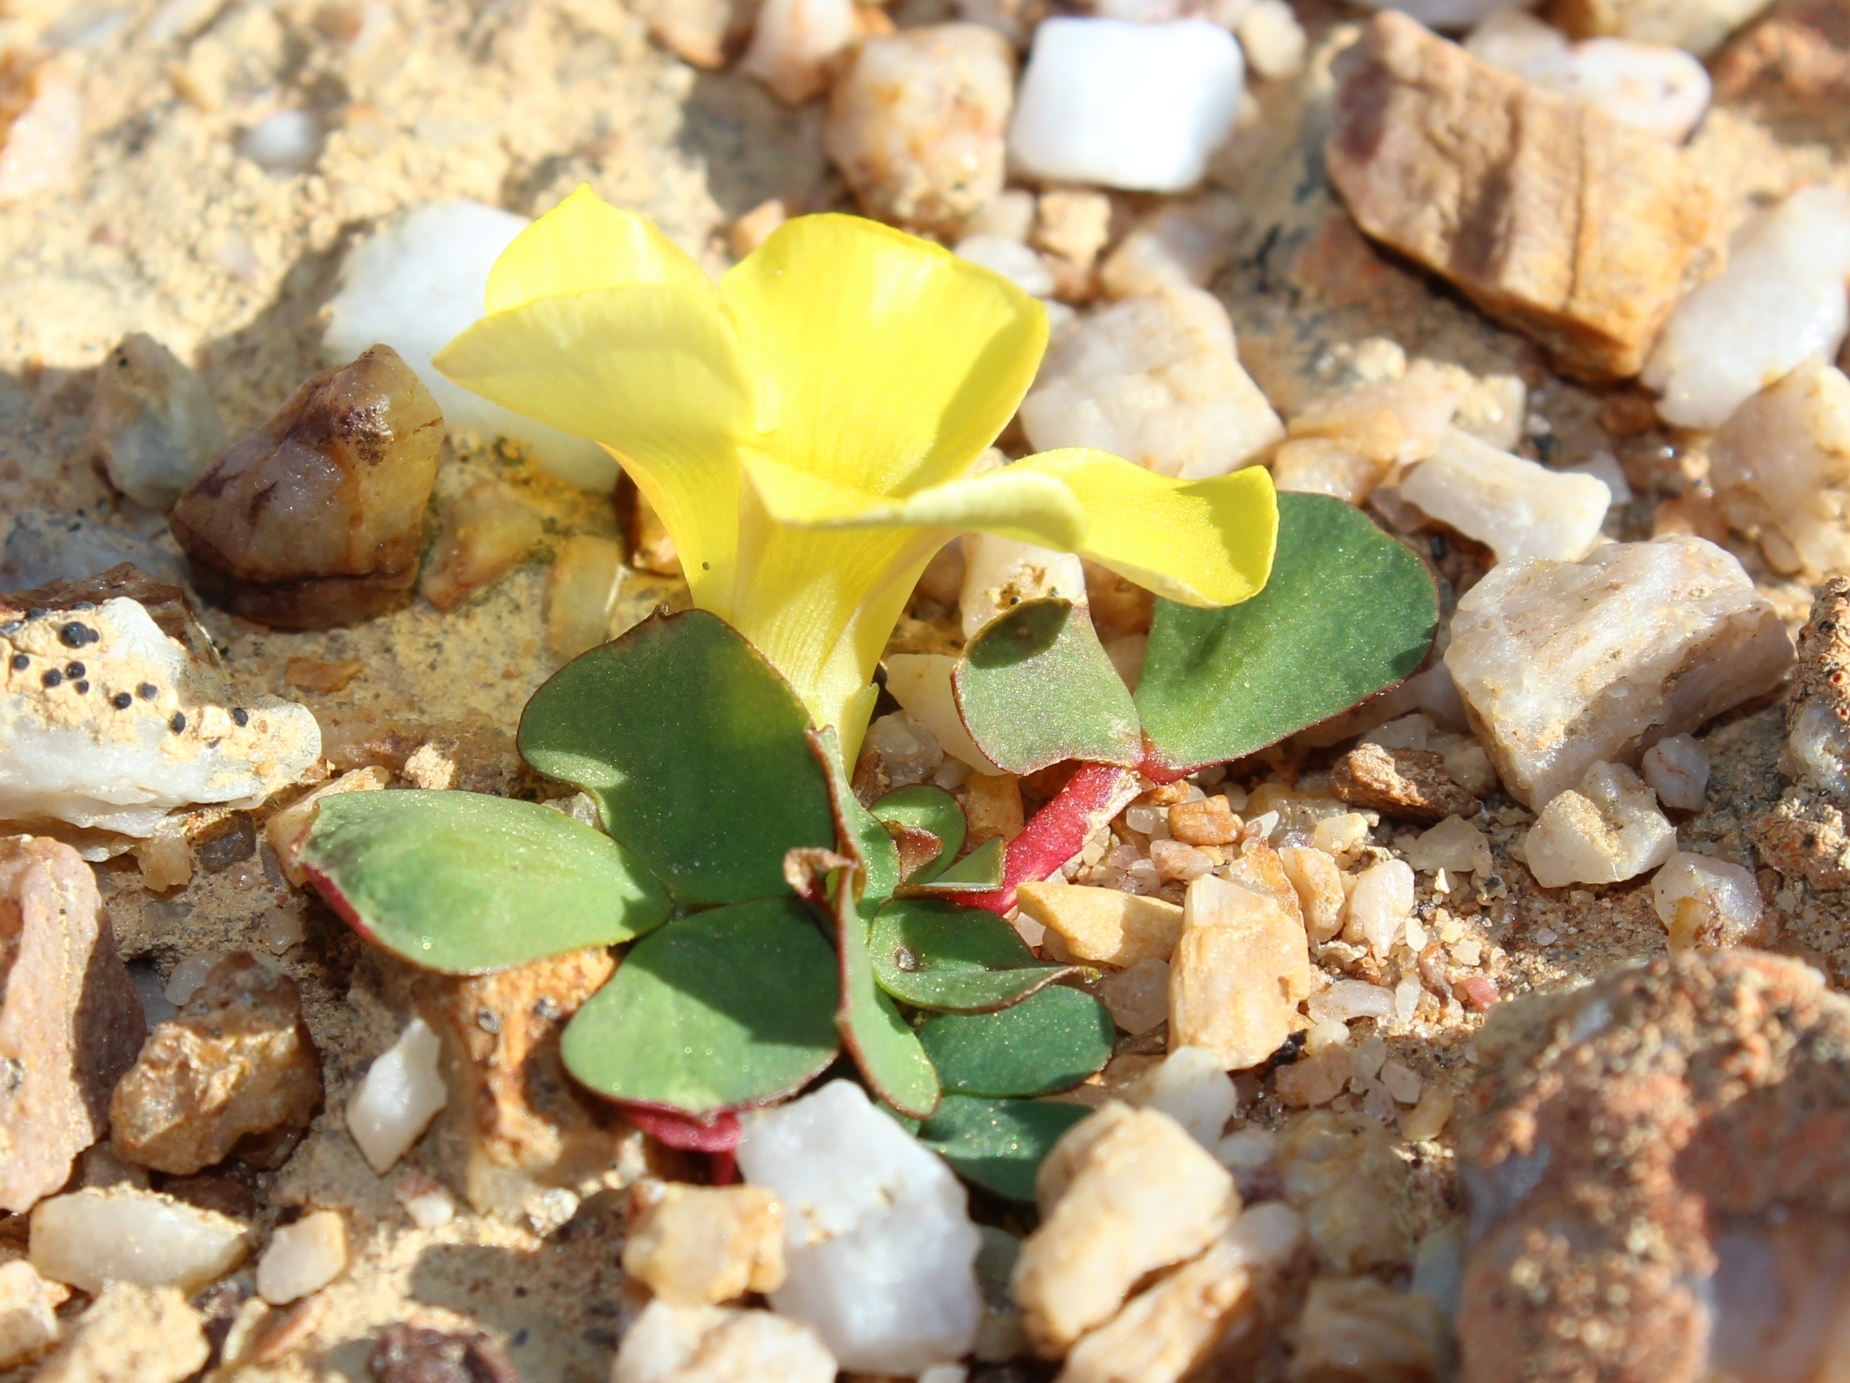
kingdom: Plantae
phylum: Tracheophyta
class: Magnoliopsida
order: Oxalidales
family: Oxalidaceae
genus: Oxalis
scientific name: Oxalis purpurea
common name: Purple woodsorrel
